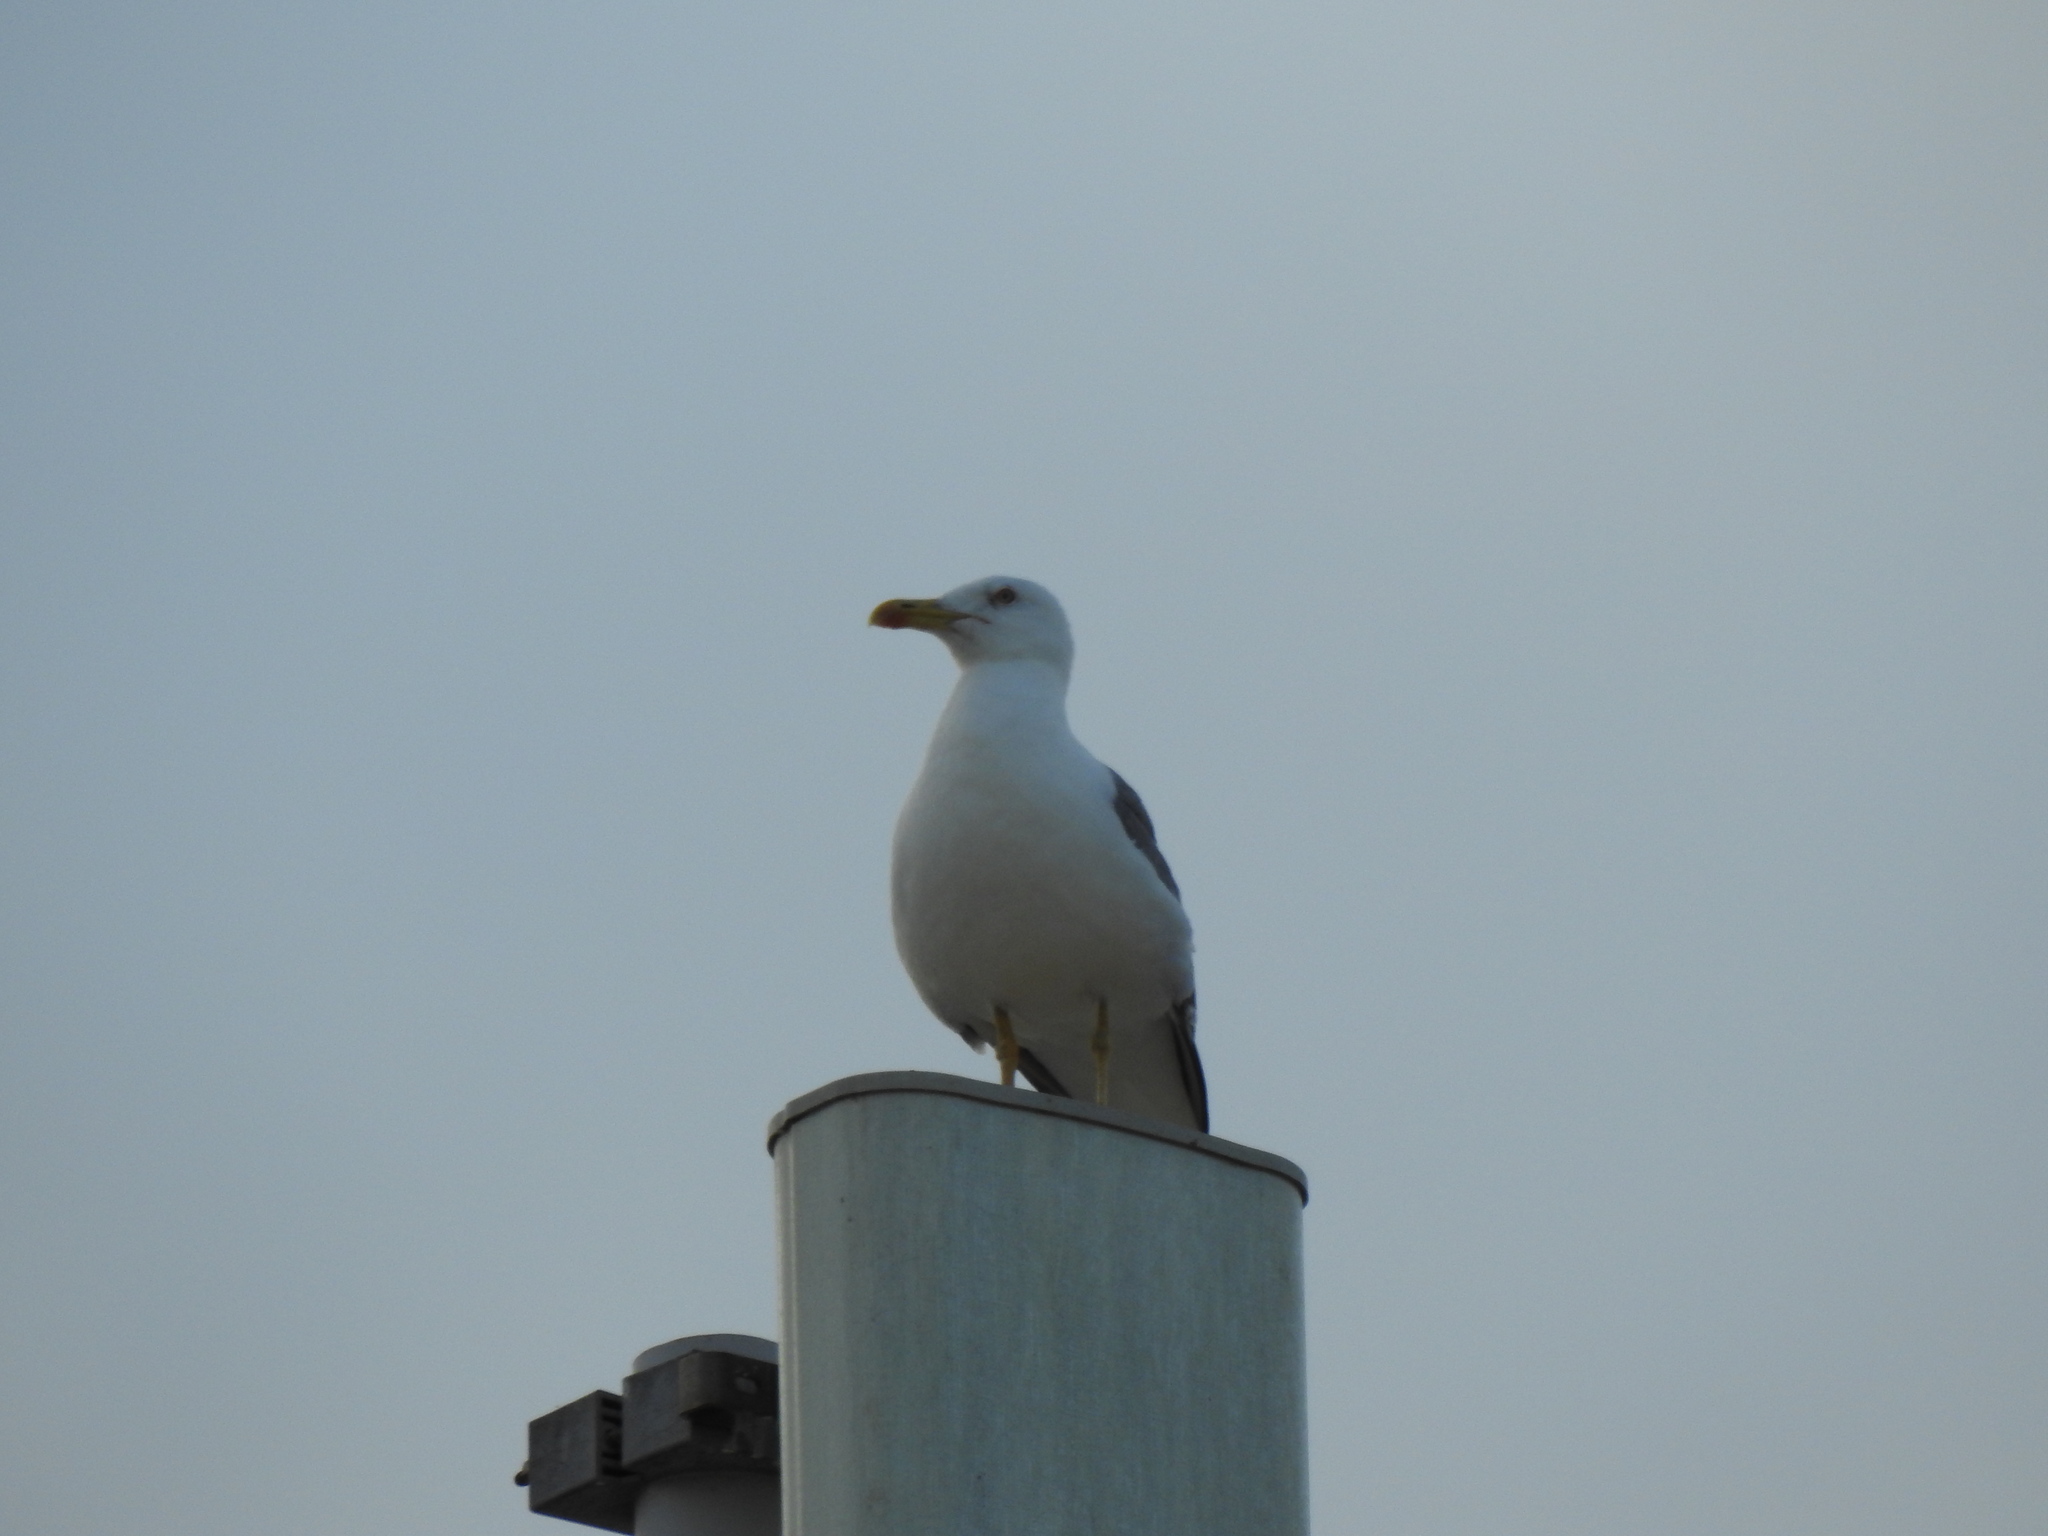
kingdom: Animalia
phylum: Chordata
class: Aves
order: Charadriiformes
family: Laridae
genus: Larus
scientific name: Larus michahellis
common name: Yellow-legged gull
